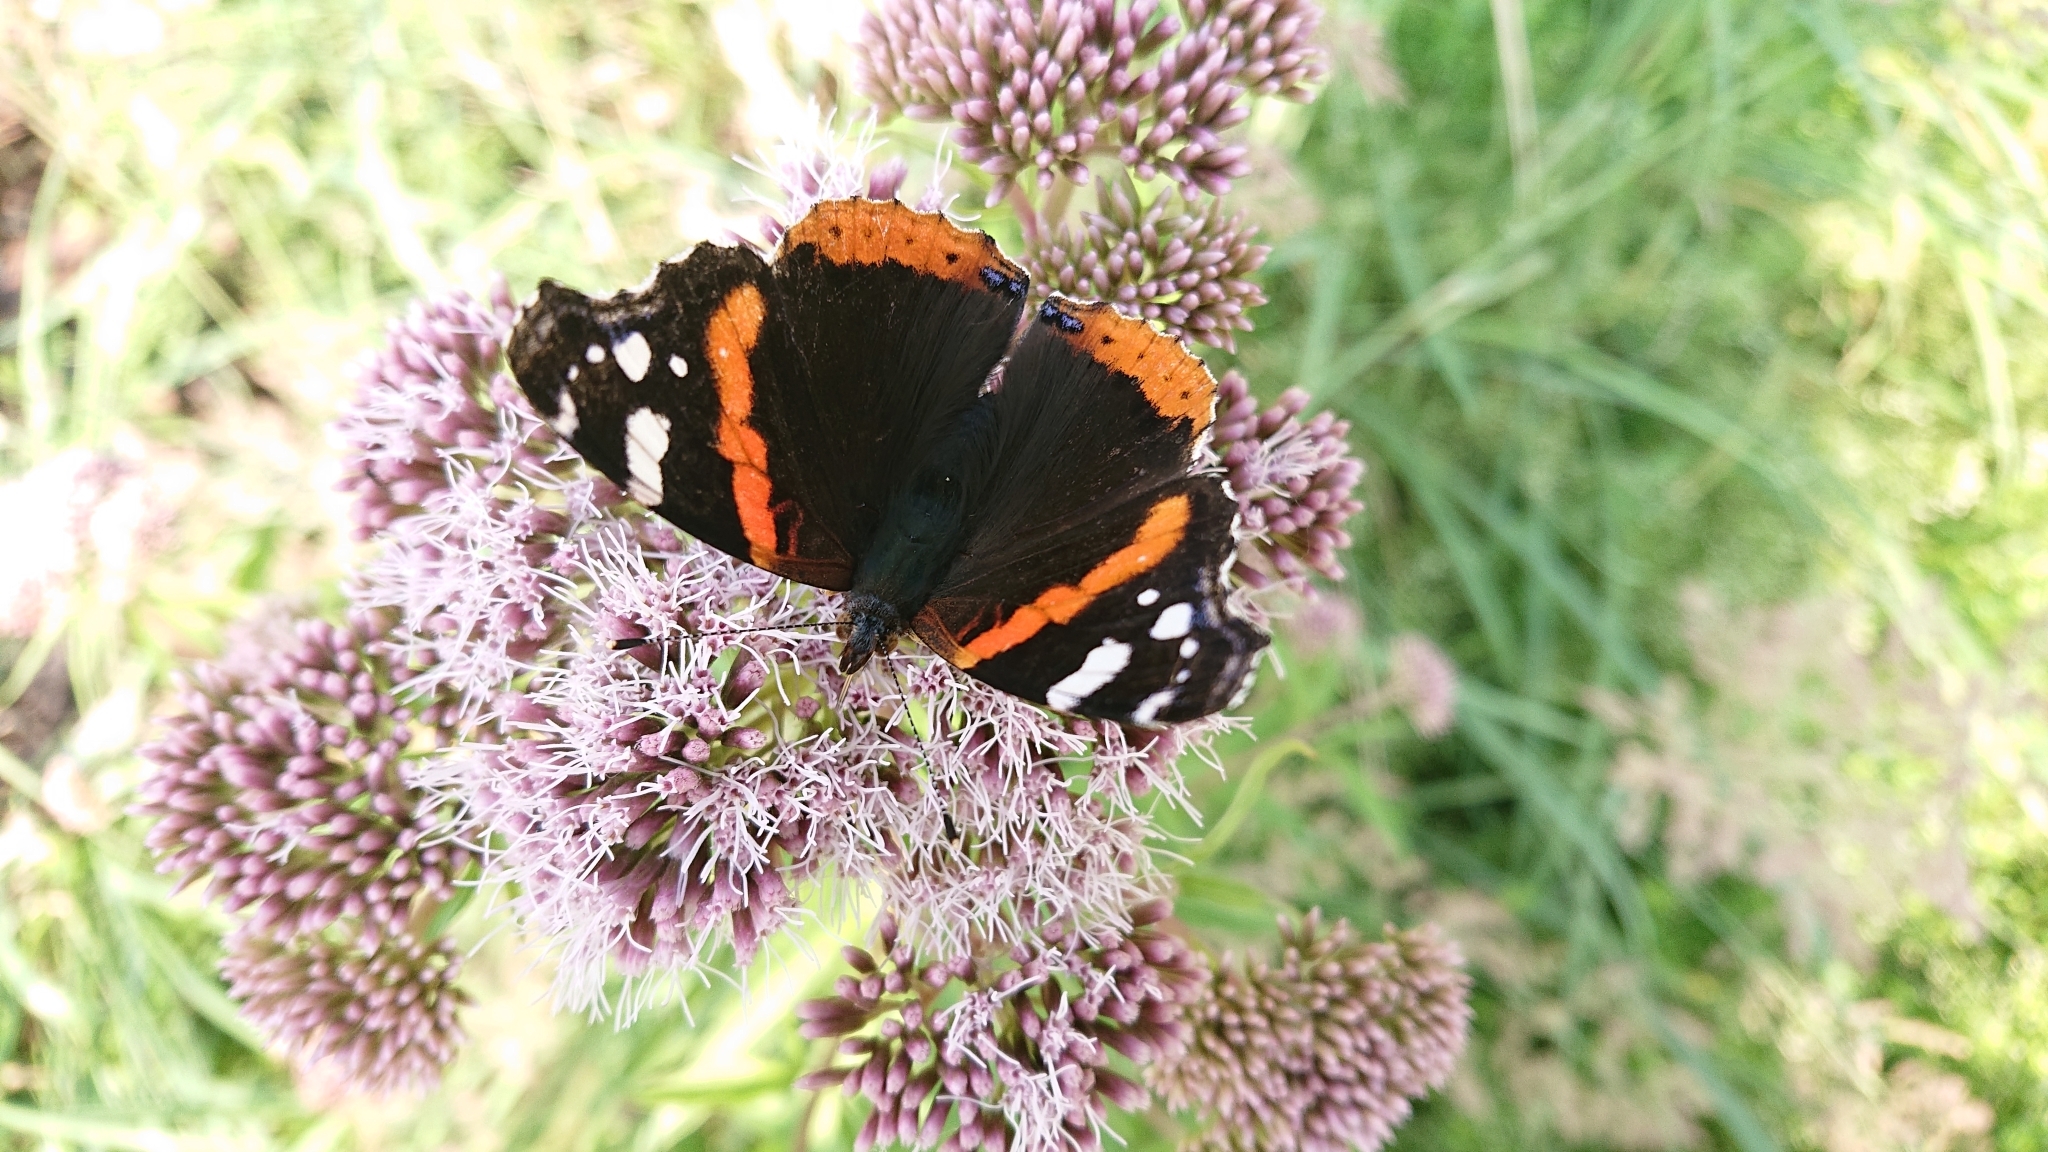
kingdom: Animalia
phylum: Arthropoda
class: Insecta
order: Lepidoptera
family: Nymphalidae
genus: Vanessa
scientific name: Vanessa atalanta
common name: Red admiral
